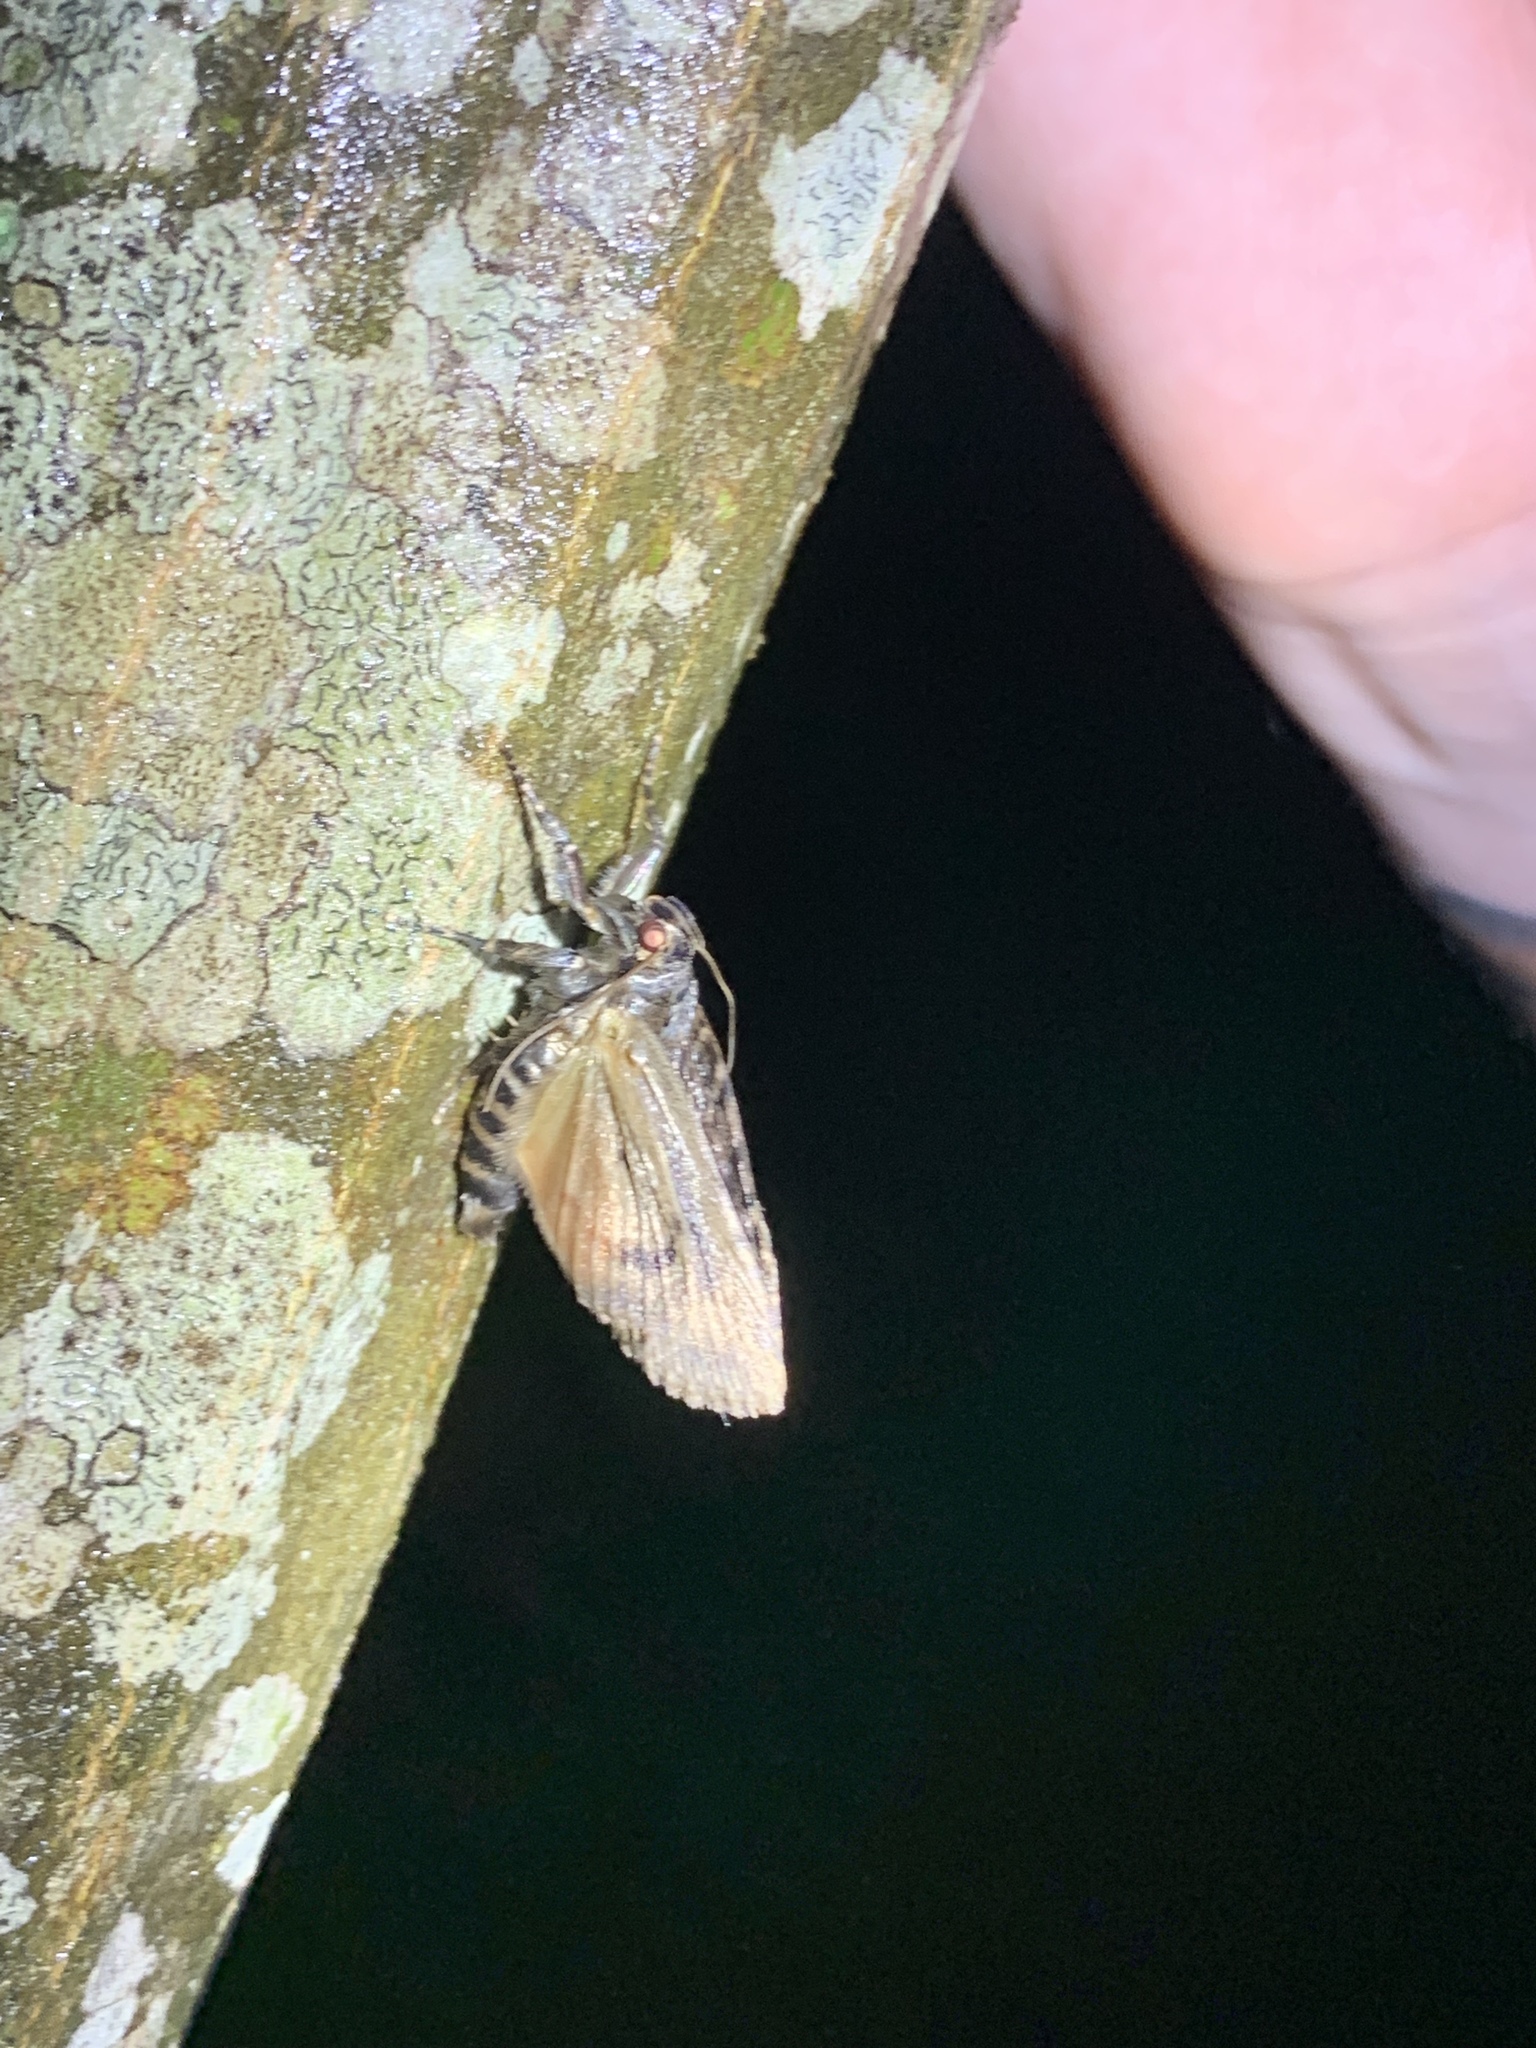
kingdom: Animalia
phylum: Arthropoda
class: Insecta
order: Lepidoptera
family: Noctuidae
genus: Amphipyra
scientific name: Amphipyra pyramidoides
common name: American copper underwing
